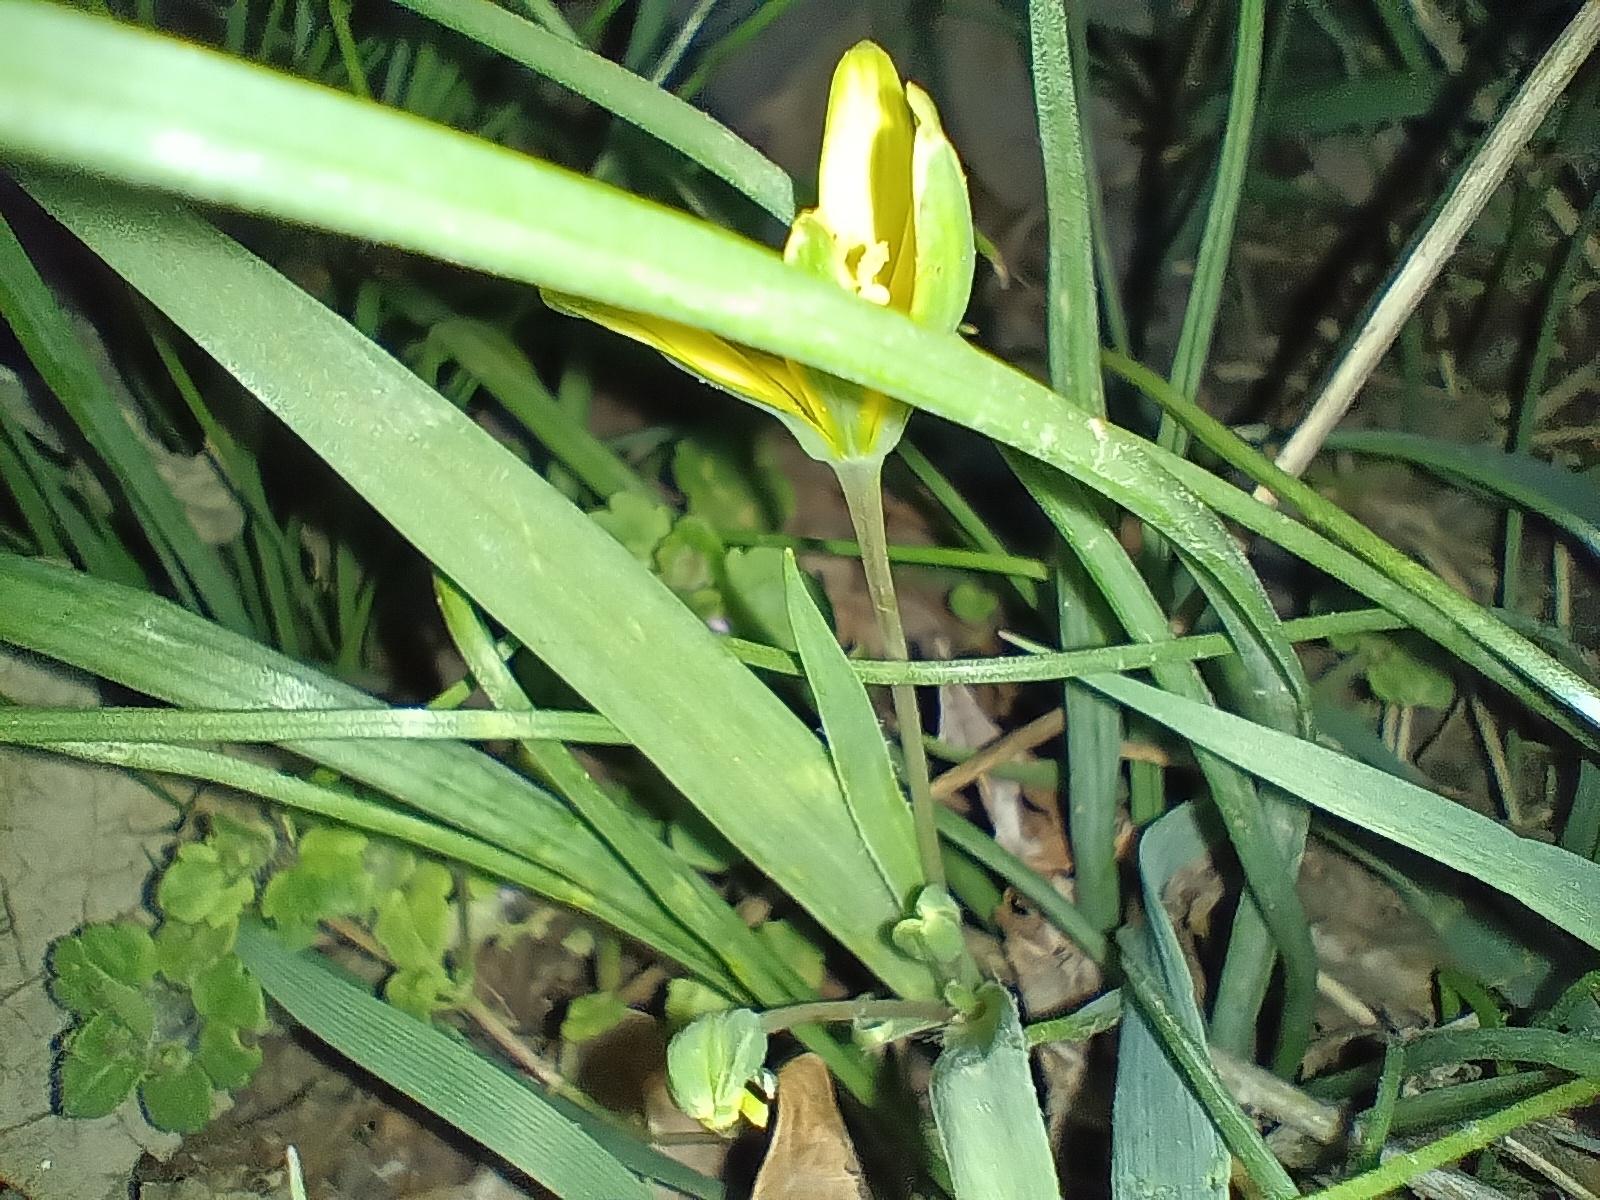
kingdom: Plantae
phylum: Tracheophyta
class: Liliopsida
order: Liliales
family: Liliaceae
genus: Gagea
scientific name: Gagea pratensis
